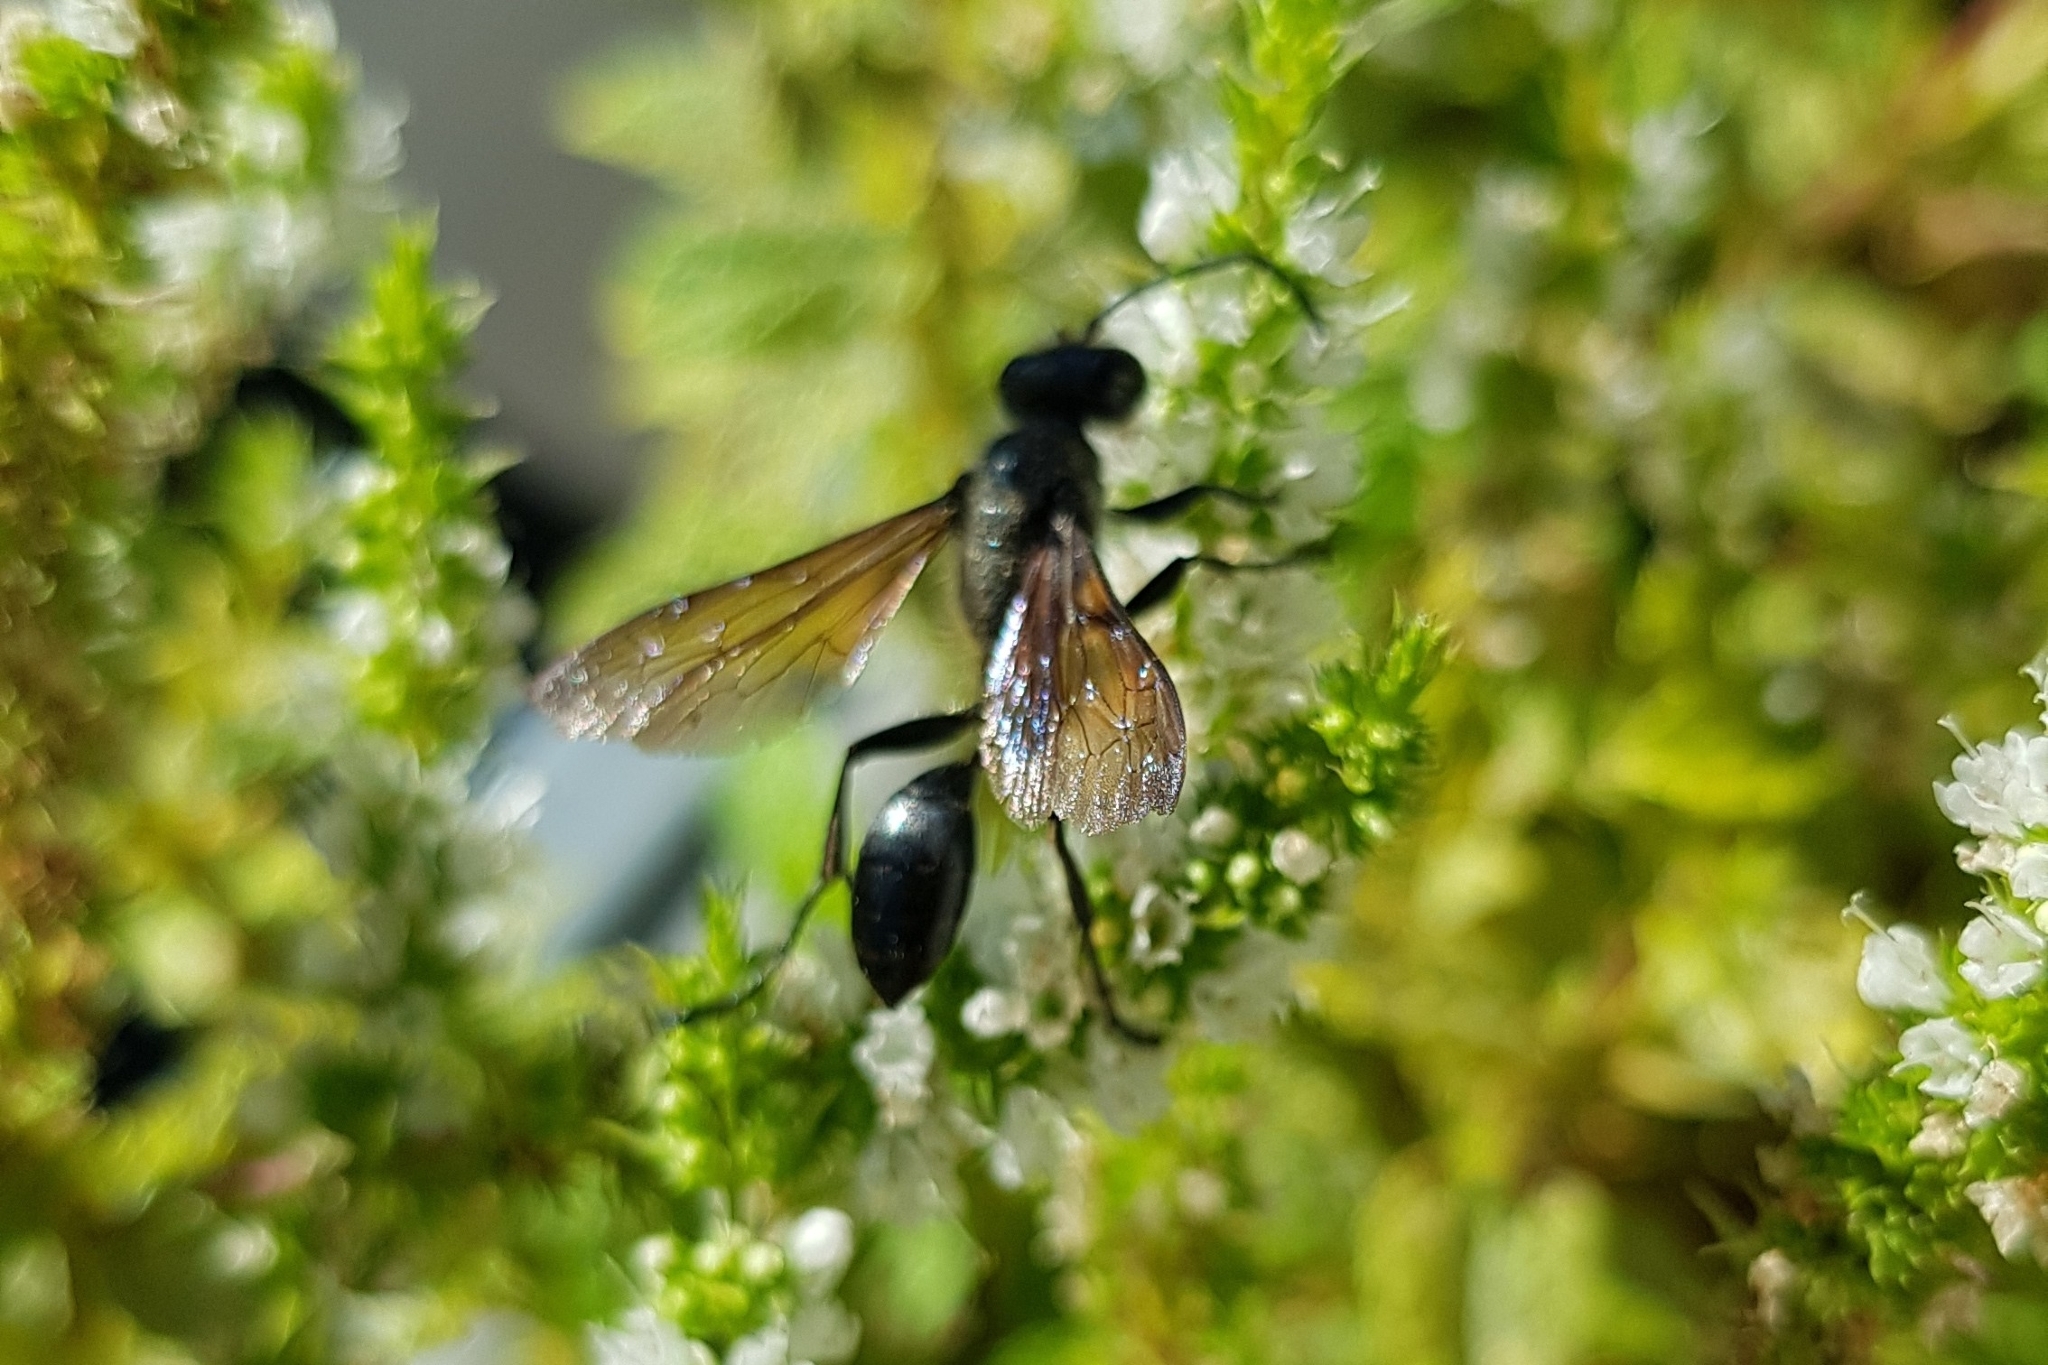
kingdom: Animalia
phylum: Arthropoda
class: Insecta
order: Hymenoptera
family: Sphecidae
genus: Isodontia
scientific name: Isodontia mexicana
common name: Mud dauber
